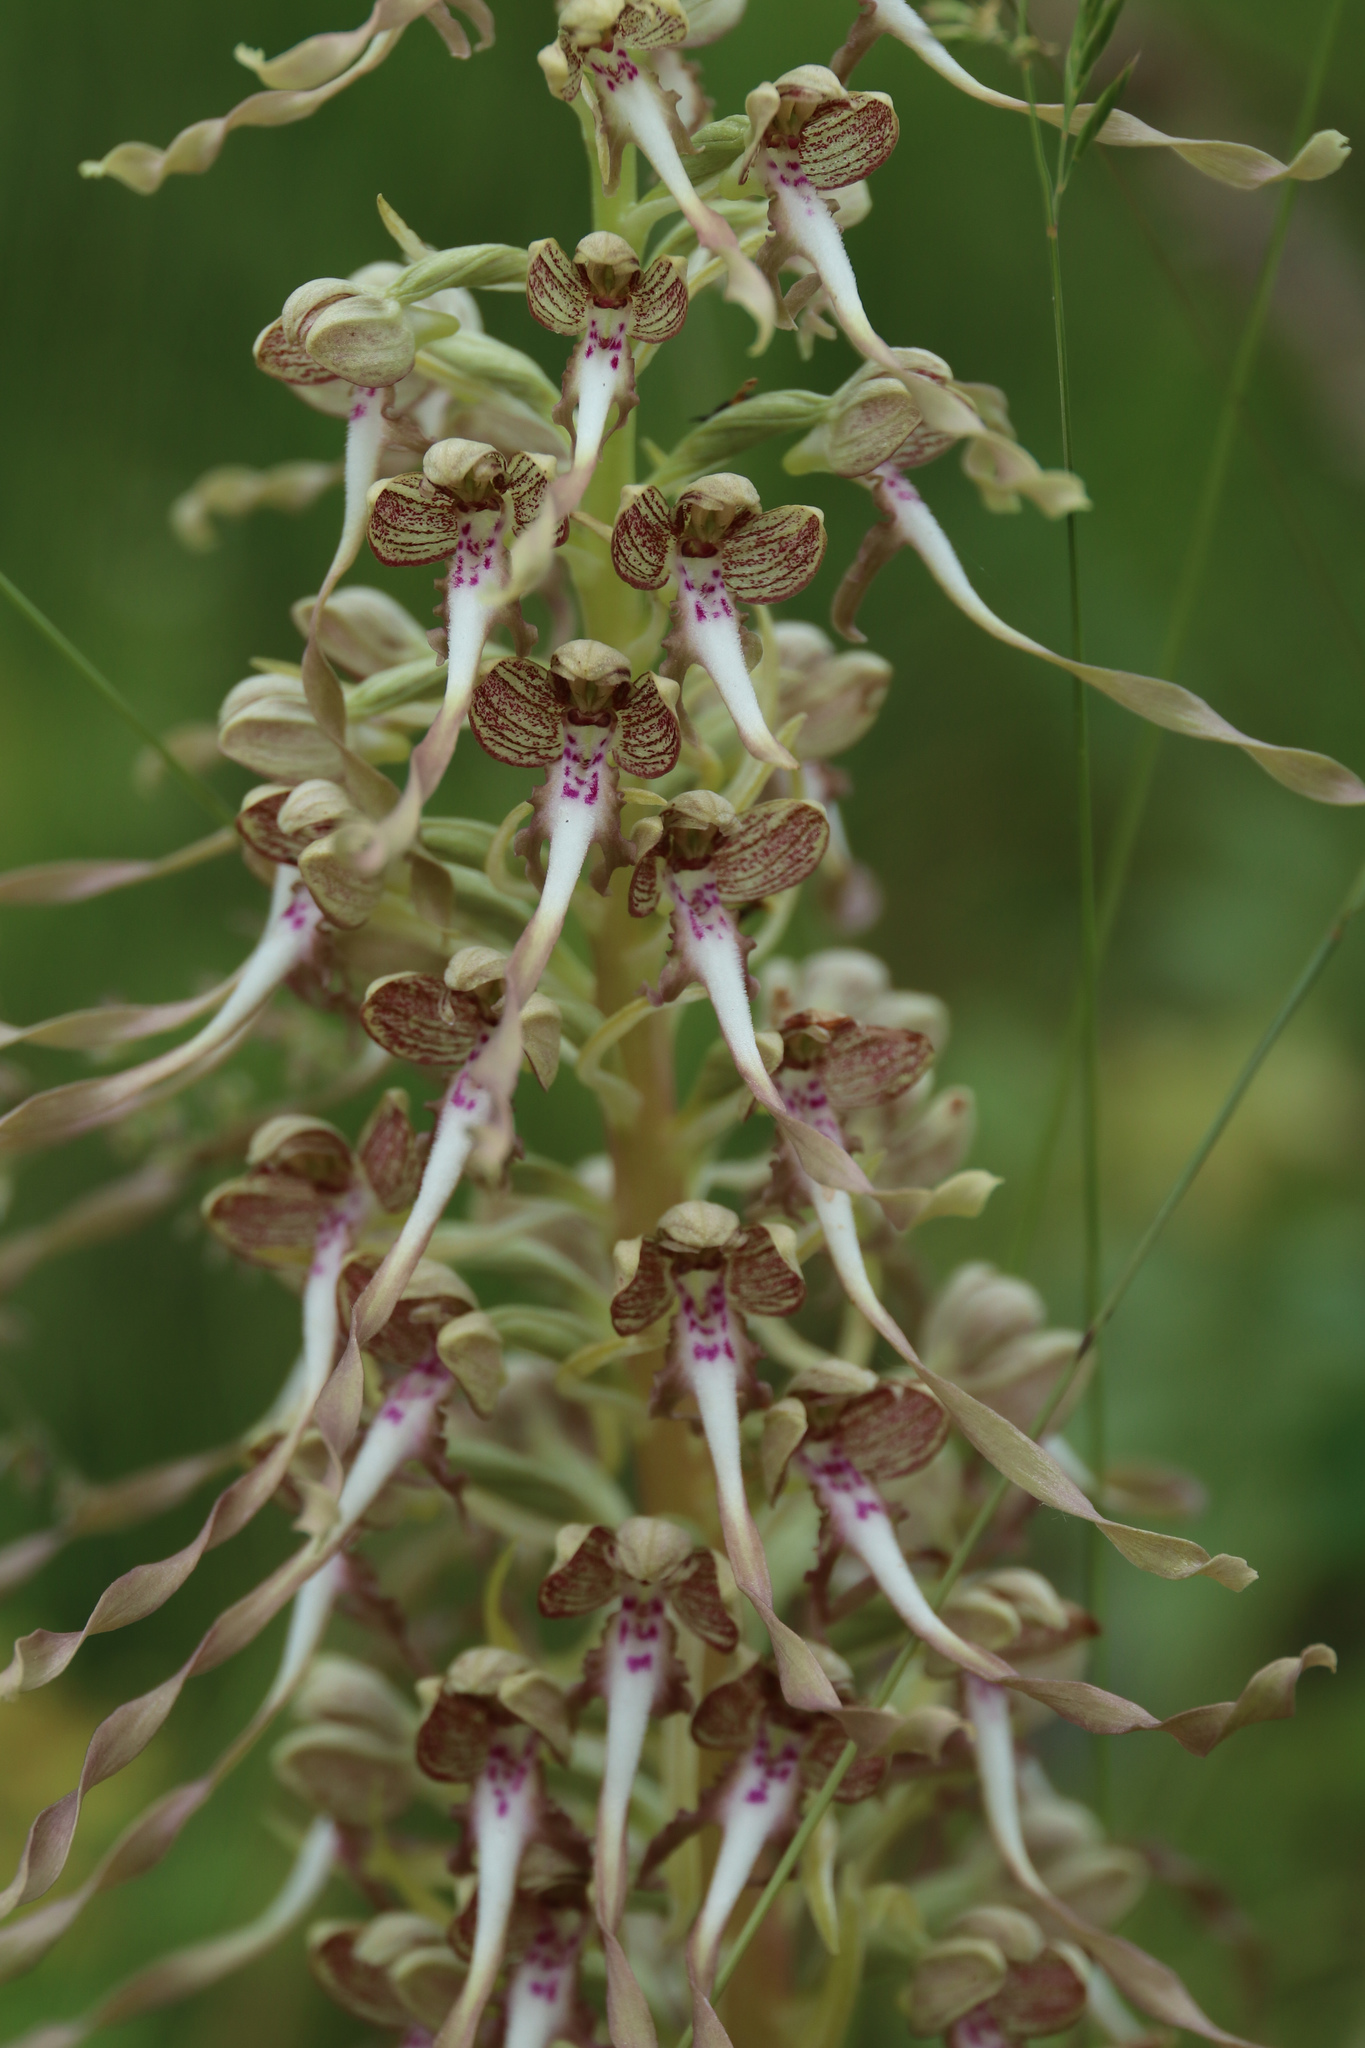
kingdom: Plantae
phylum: Tracheophyta
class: Liliopsida
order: Asparagales
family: Orchidaceae
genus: Himantoglossum
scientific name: Himantoglossum hircinum
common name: Lizard orchid
